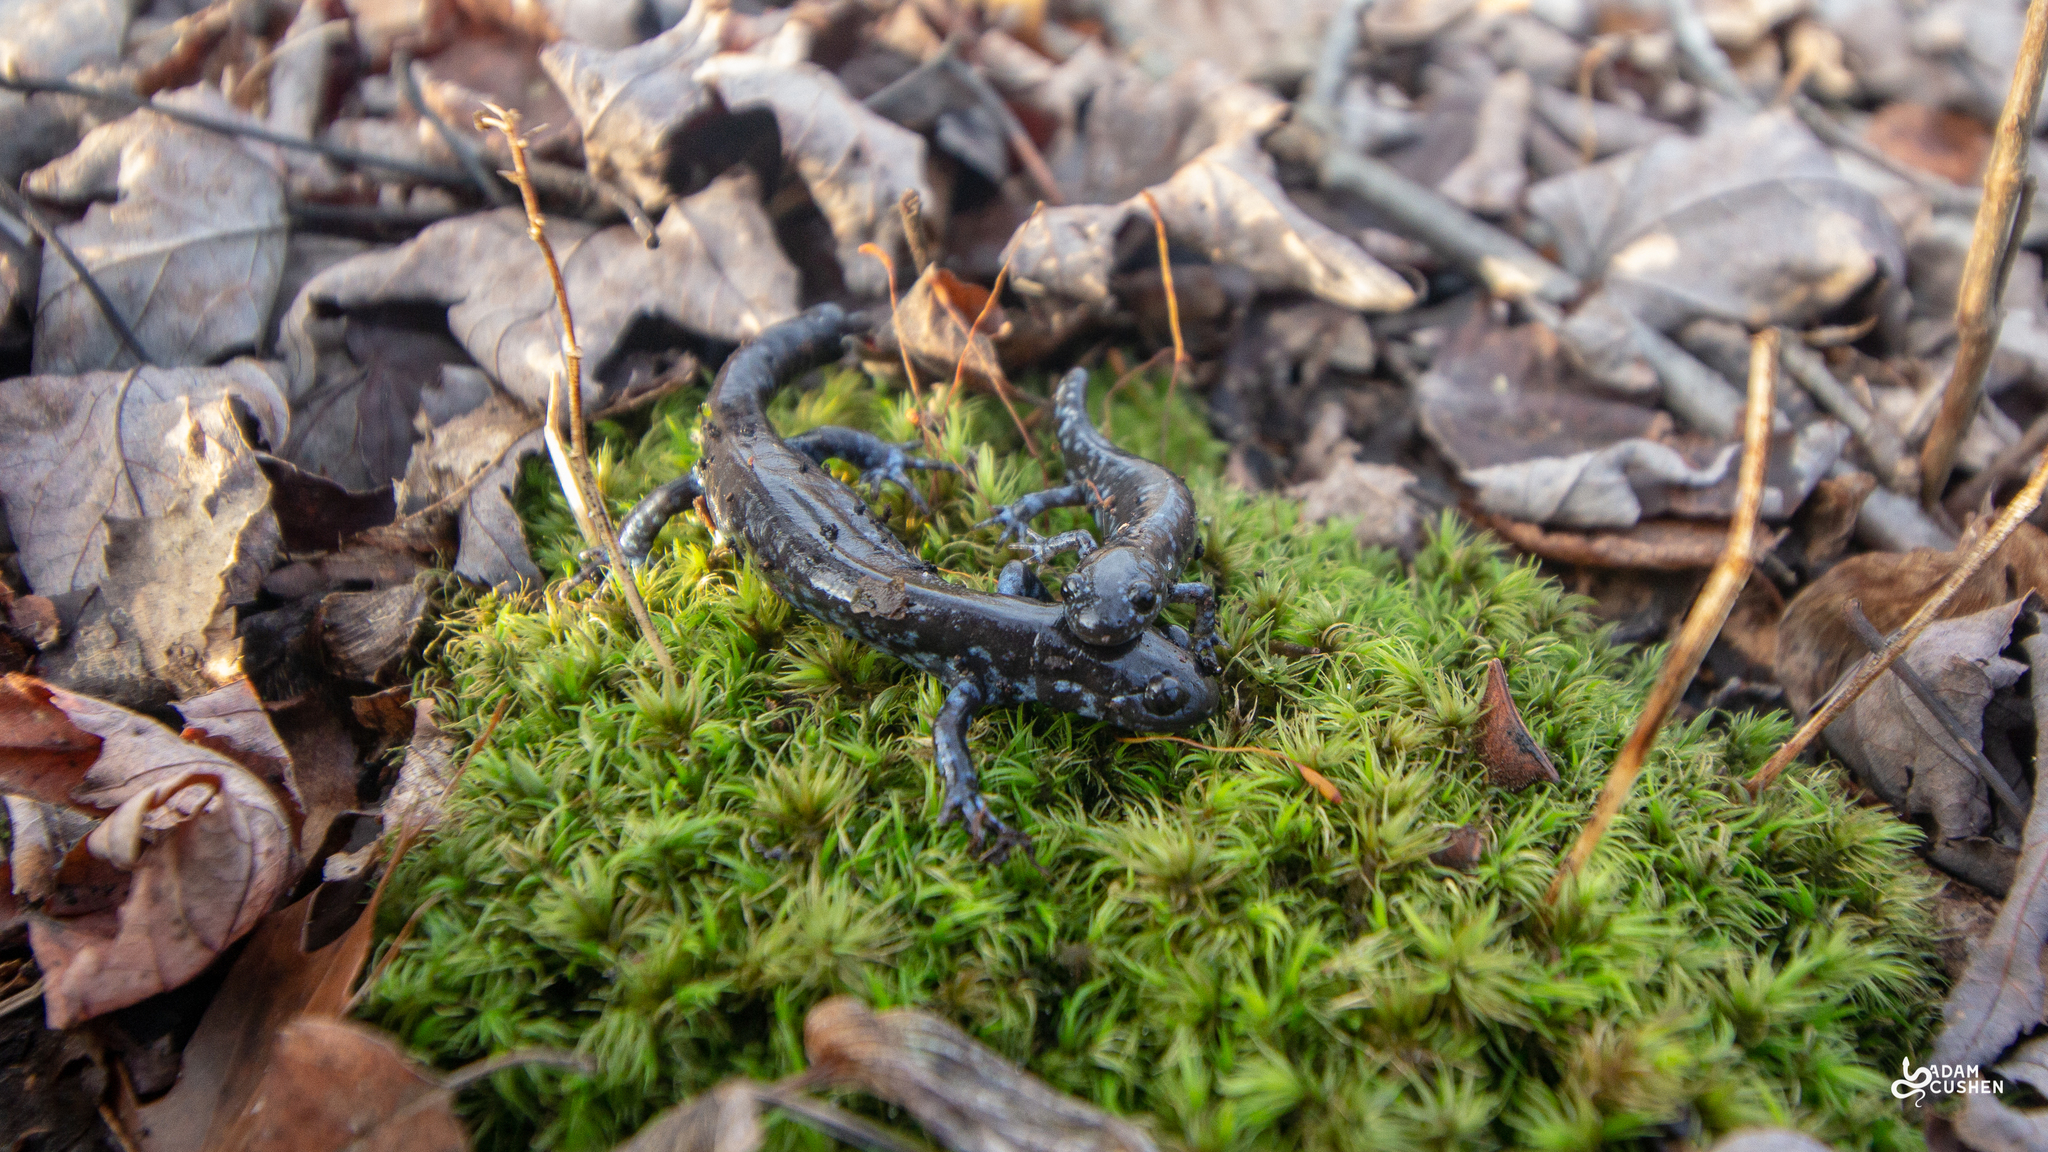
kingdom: Animalia
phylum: Chordata
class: Amphibia
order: Caudata
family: Ambystomatidae
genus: Ambystoma
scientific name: Ambystoma laterale
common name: Blue-spotted salamander
